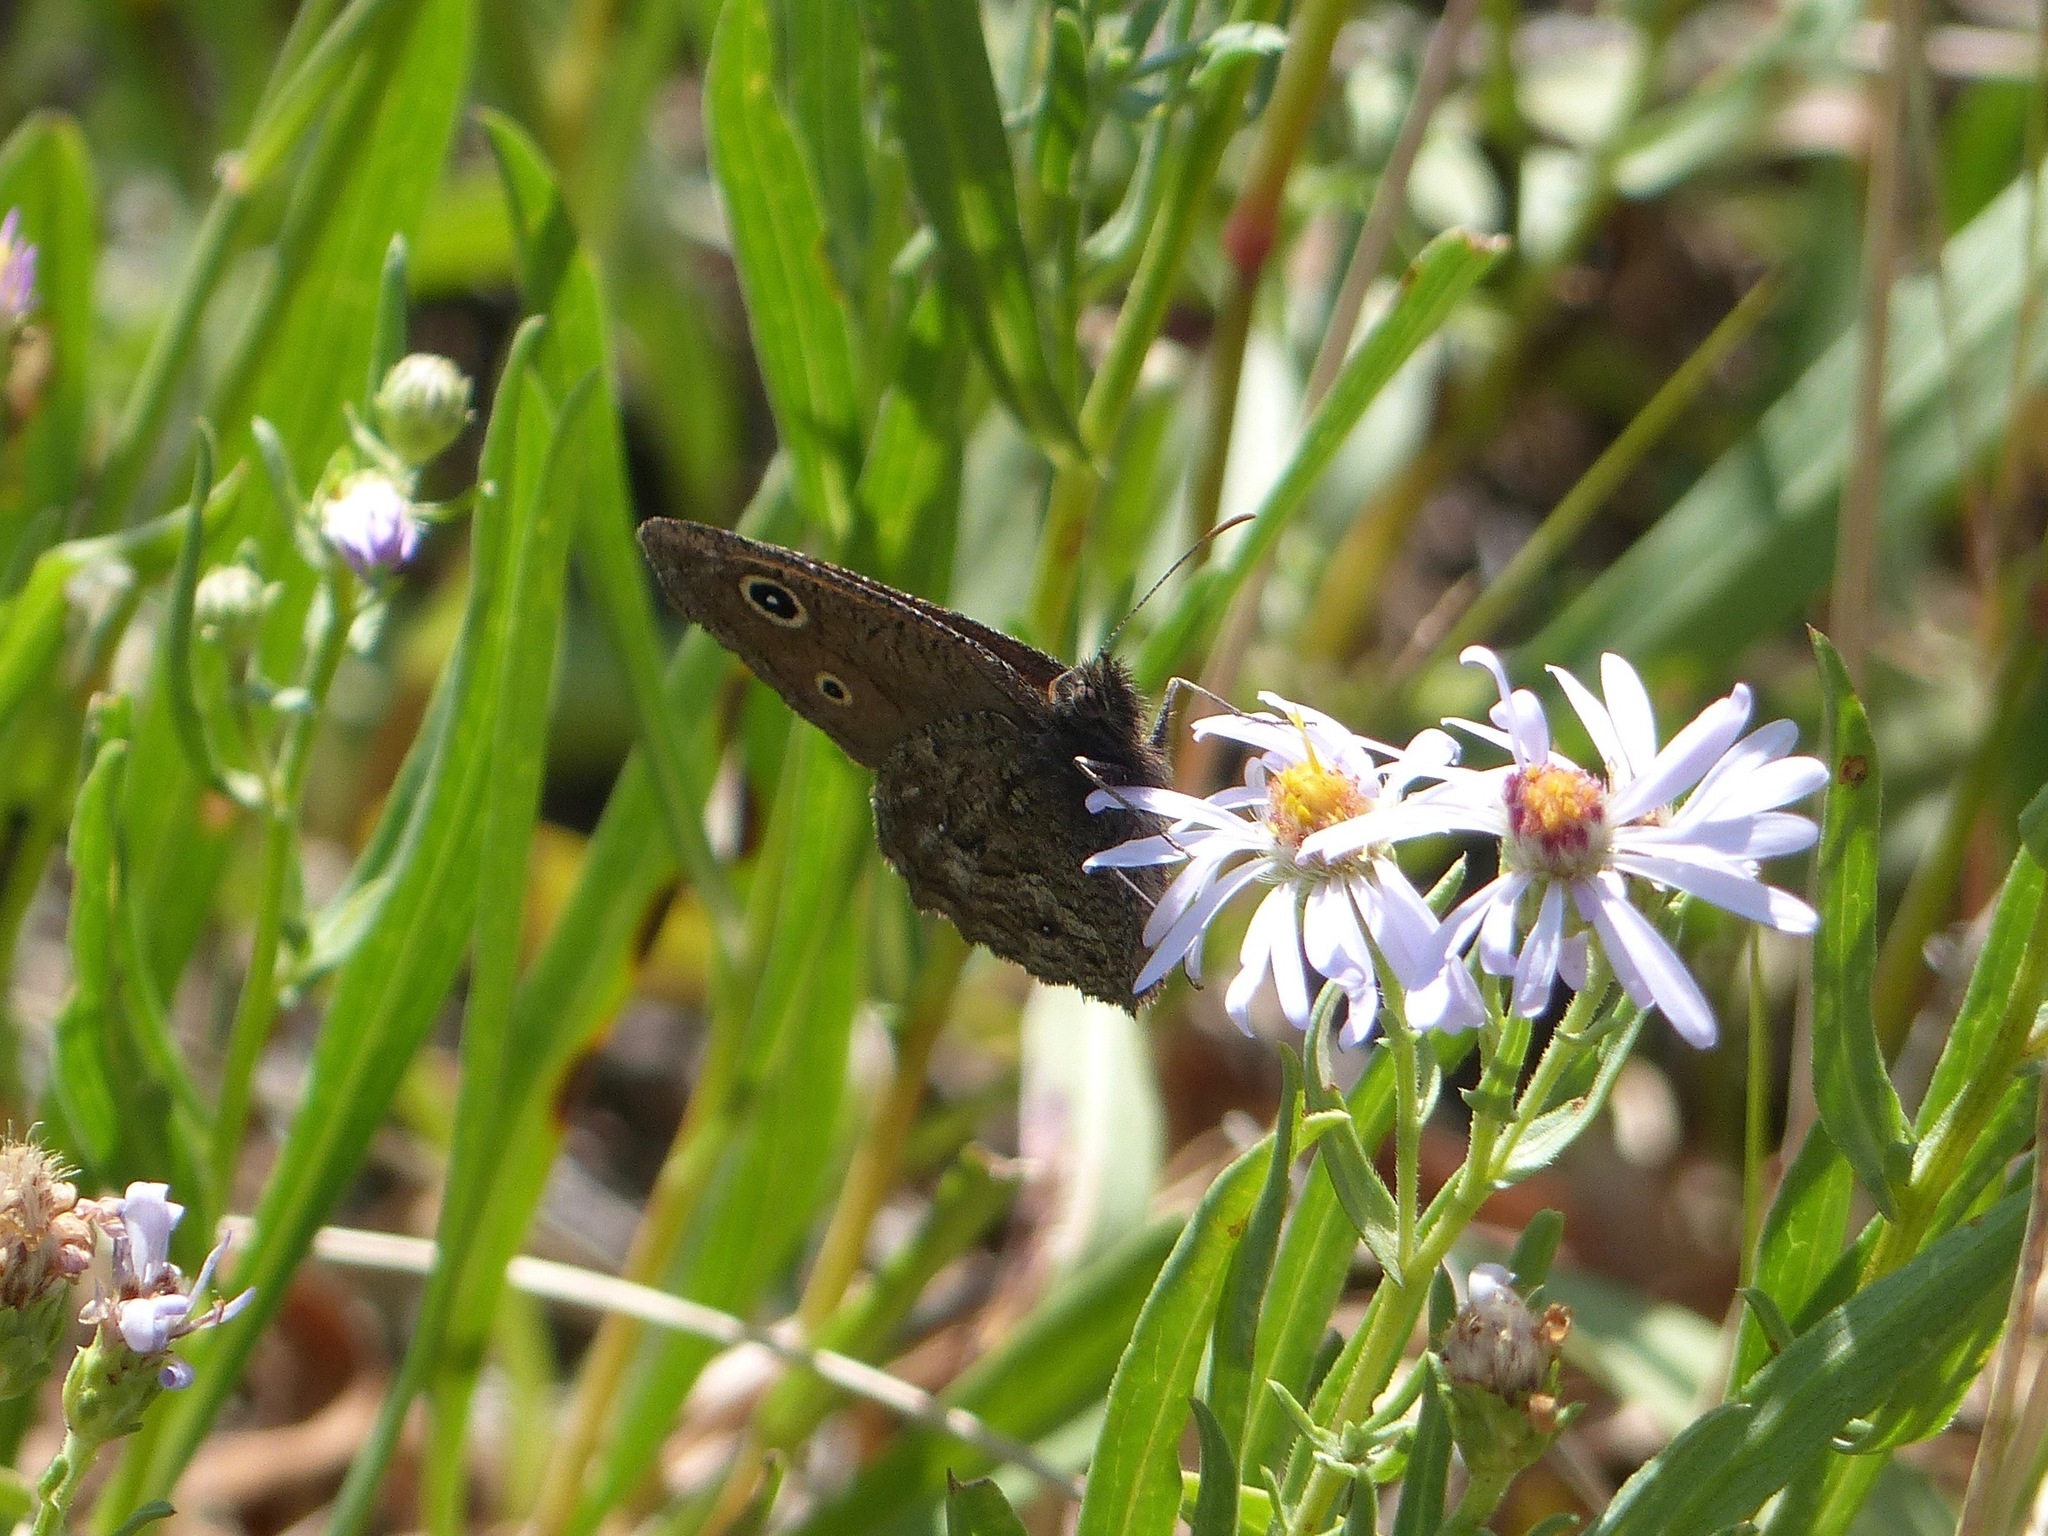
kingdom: Animalia
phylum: Arthropoda
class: Insecta
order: Lepidoptera
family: Nymphalidae
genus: Cercyonis
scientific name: Cercyonis oetus
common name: Small wood-nymph
